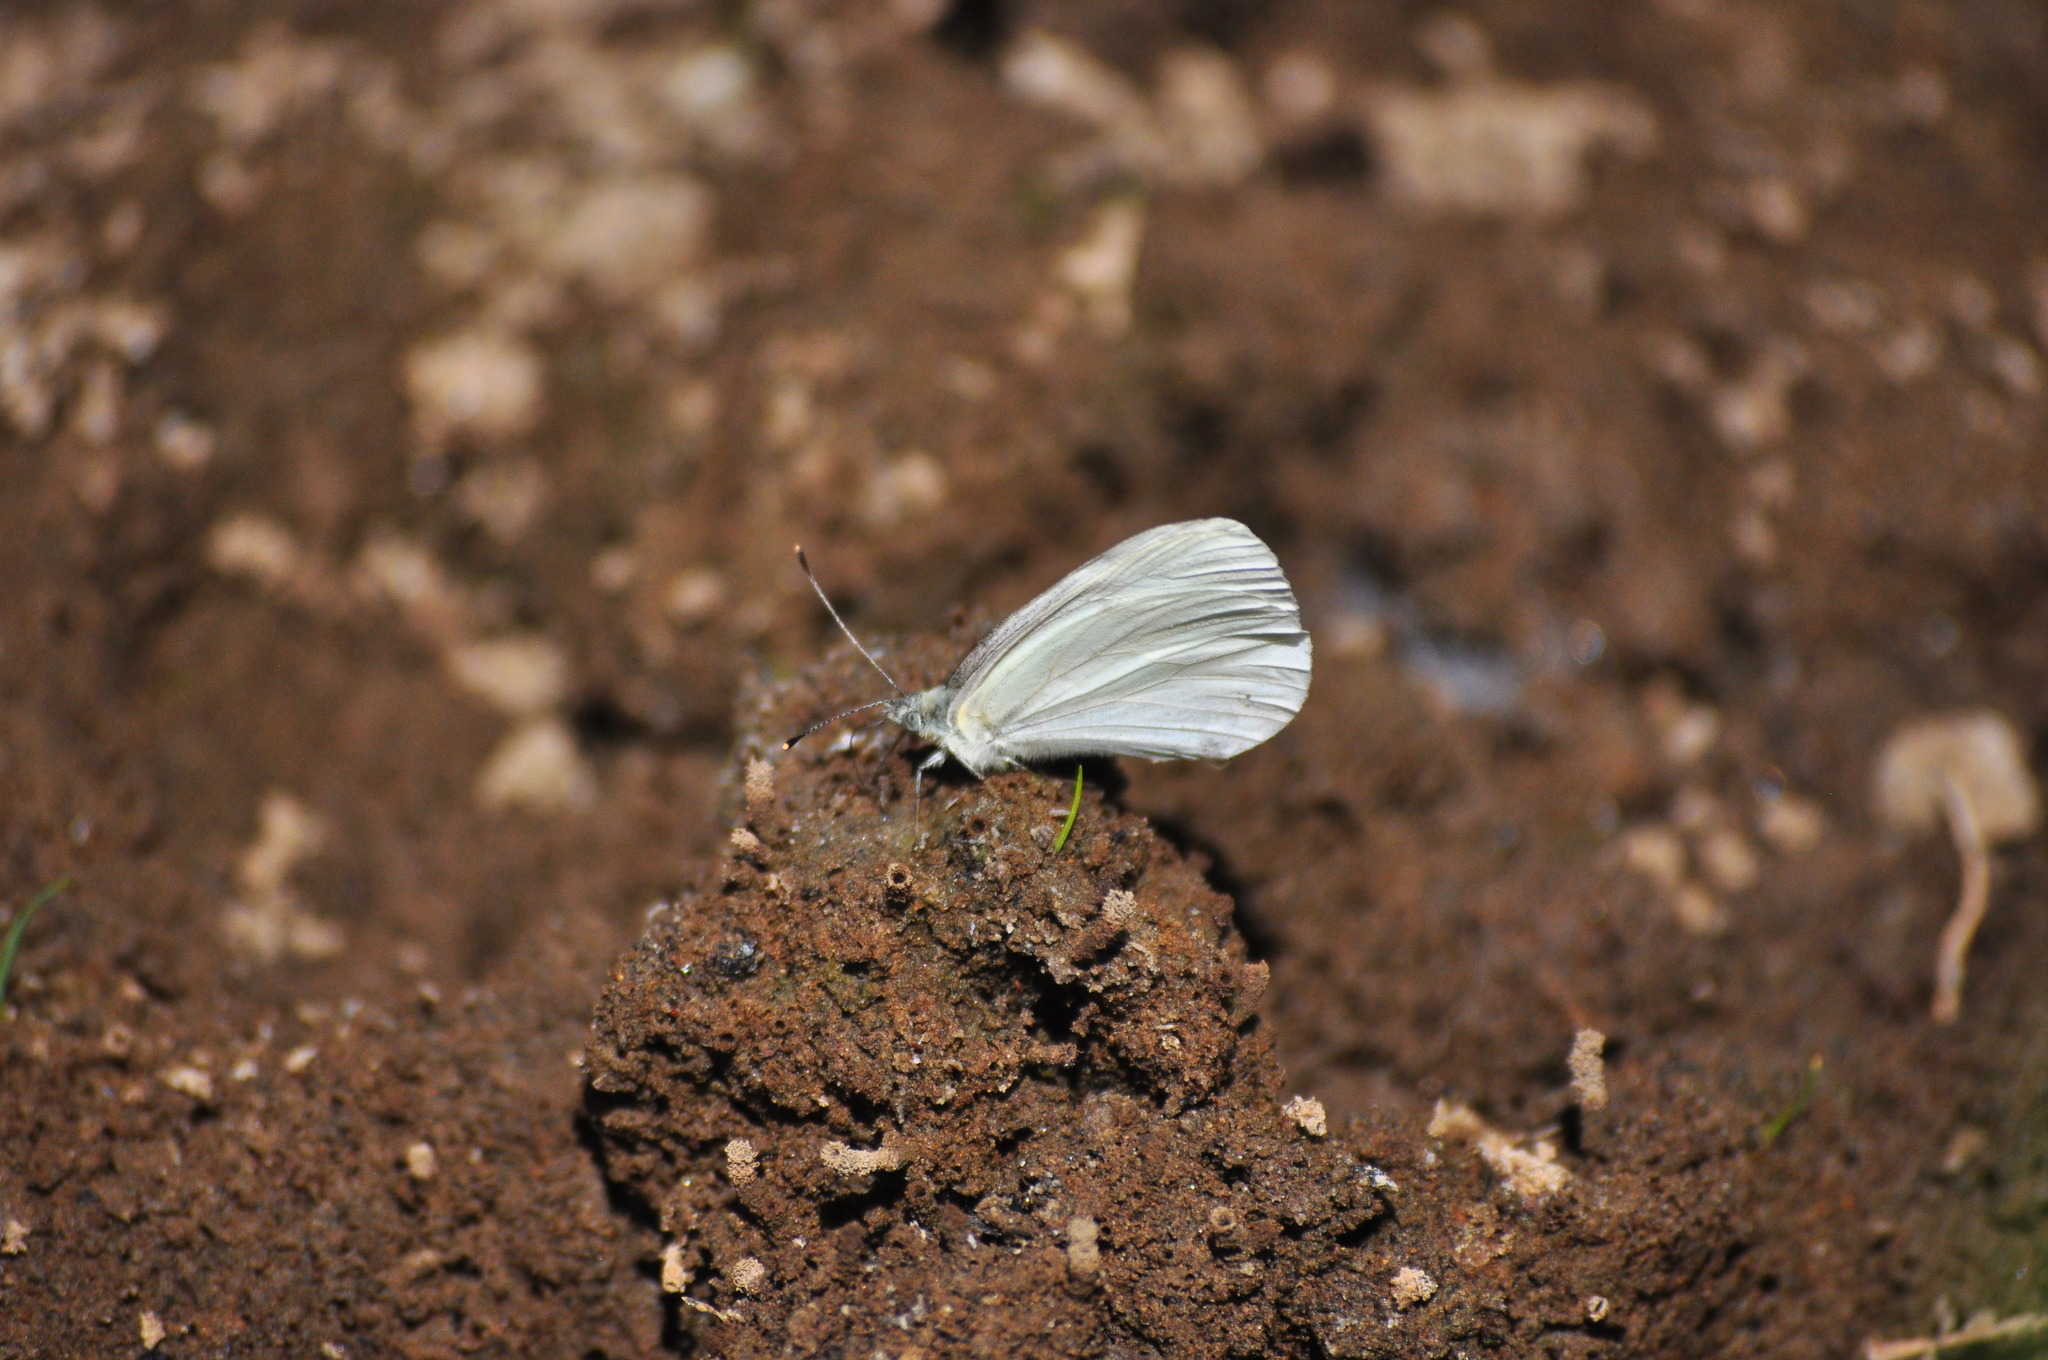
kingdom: Animalia
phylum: Arthropoda
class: Insecta
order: Lepidoptera
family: Pieridae
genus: Pieris
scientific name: Pieris marginalis
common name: Margined white
